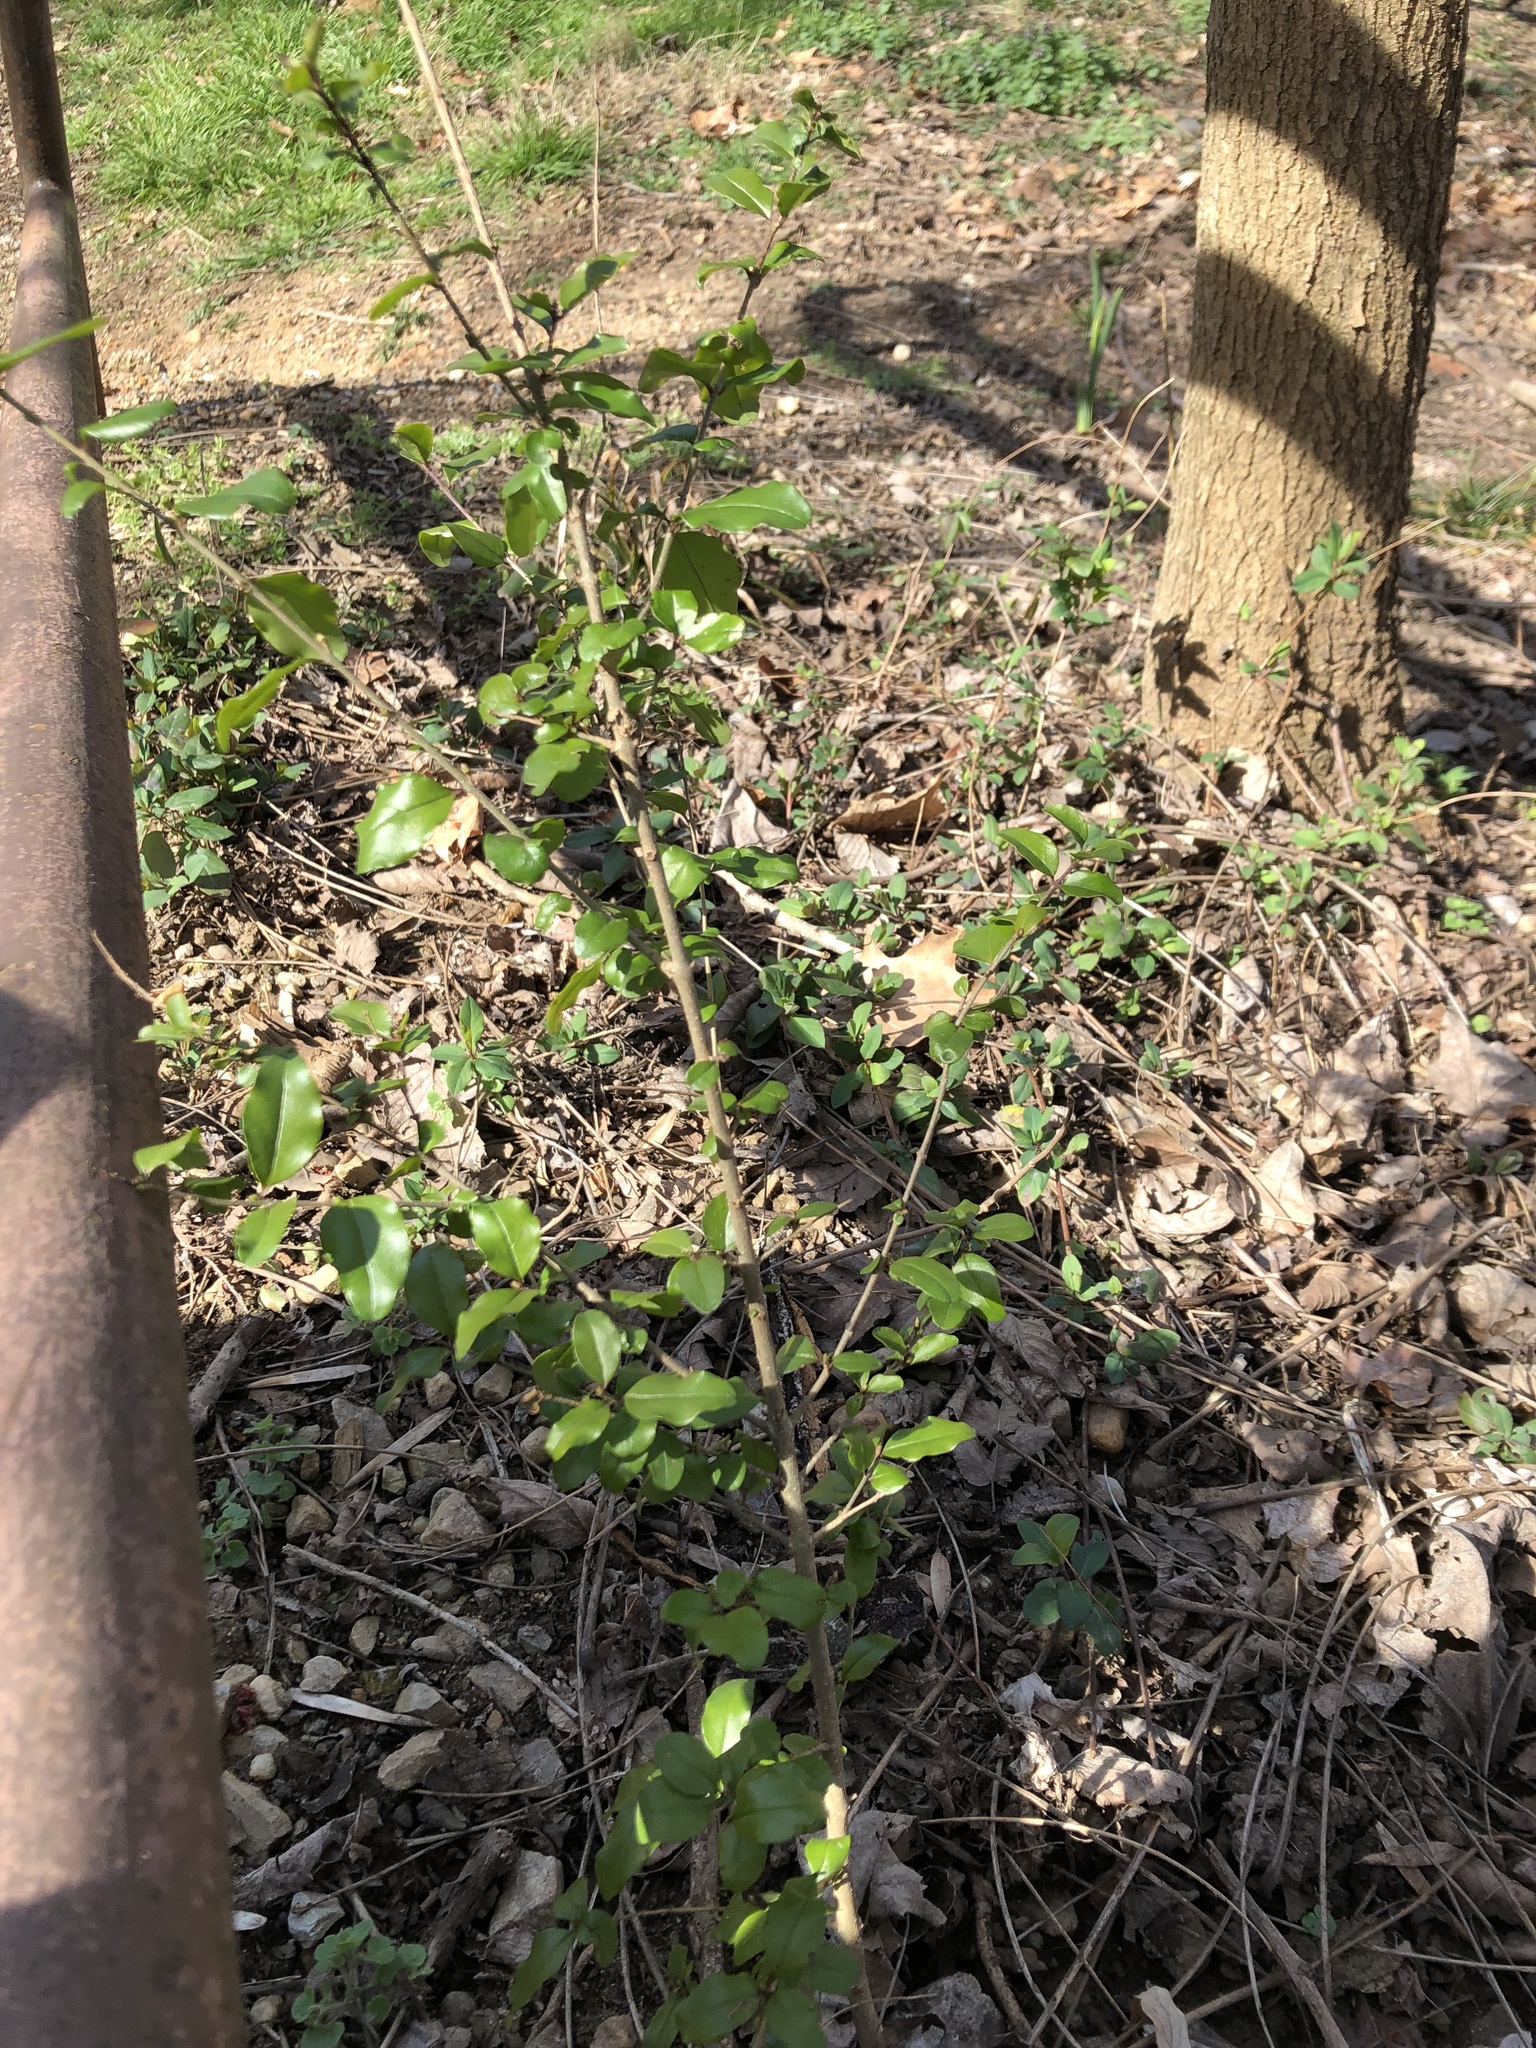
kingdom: Plantae
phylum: Tracheophyta
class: Magnoliopsida
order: Lamiales
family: Oleaceae
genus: Ligustrum
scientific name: Ligustrum sinense
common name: Chinese privet
